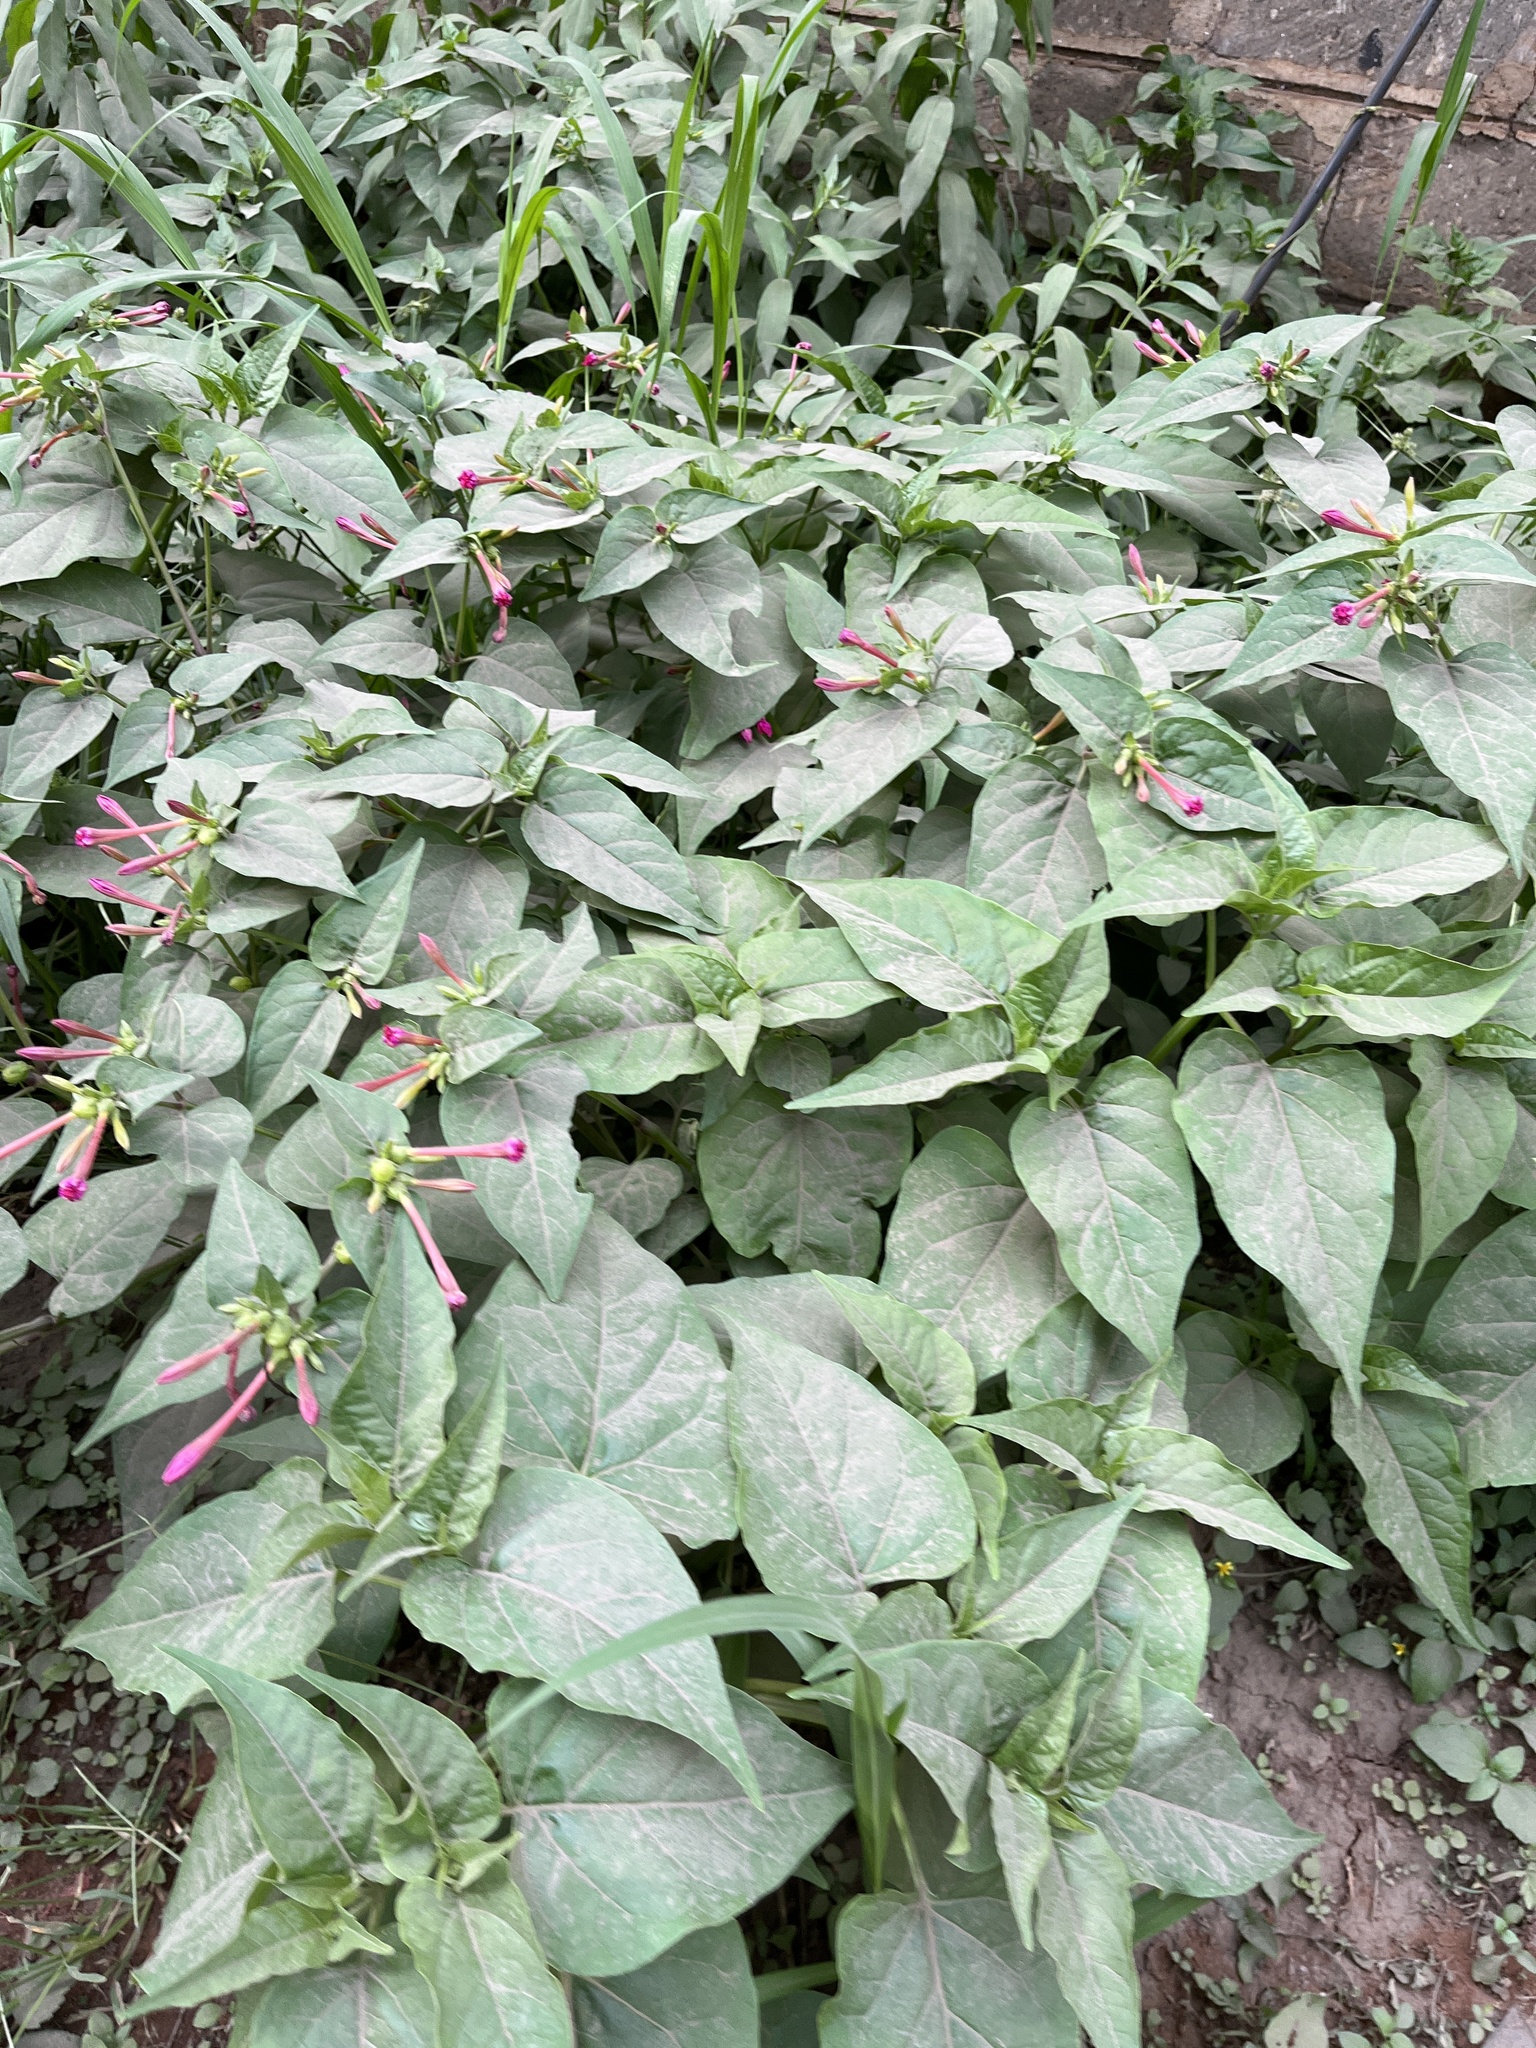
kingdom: Plantae
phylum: Tracheophyta
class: Magnoliopsida
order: Caryophyllales
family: Nyctaginaceae
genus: Mirabilis
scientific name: Mirabilis jalapa
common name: Marvel-of-peru
